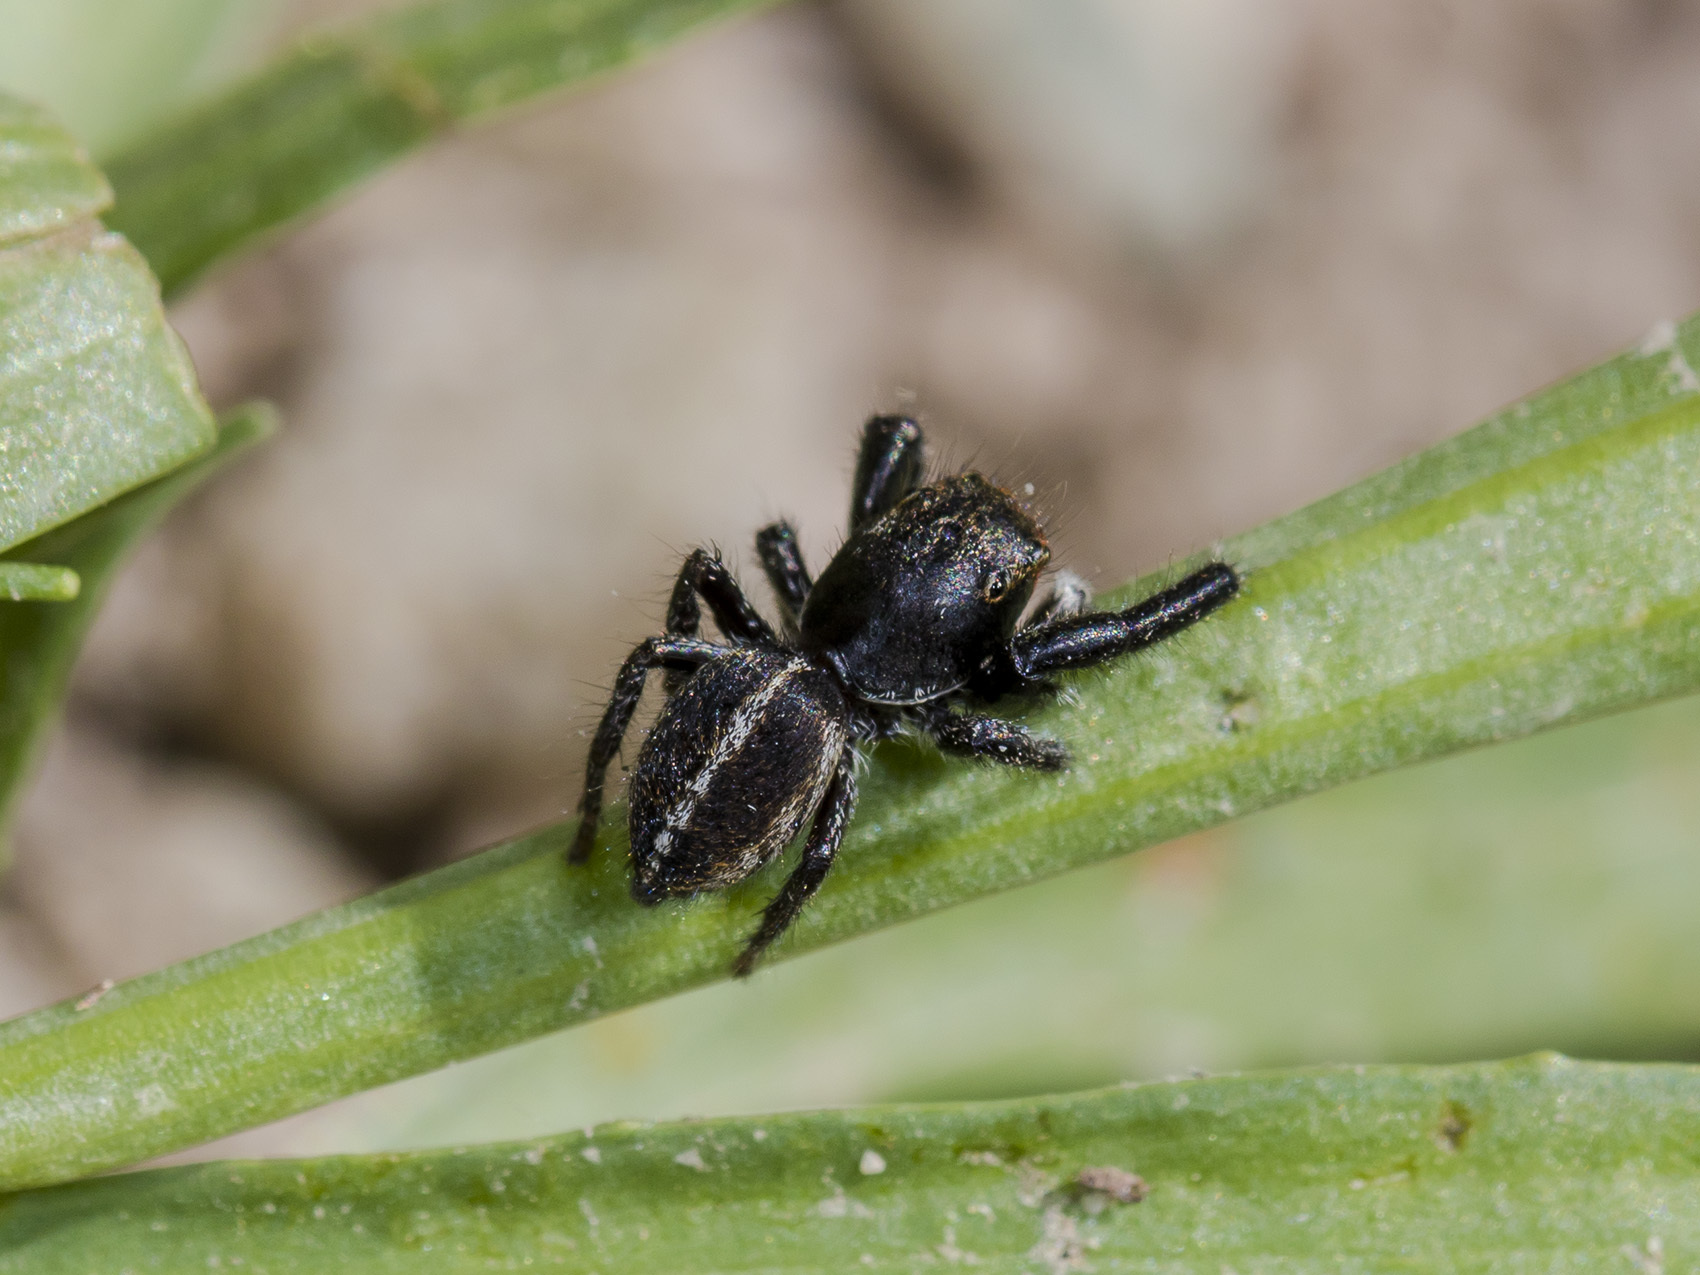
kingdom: Animalia
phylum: Arthropoda
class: Arachnida
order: Araneae
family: Salticidae
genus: Pellenes
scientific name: Pellenes seriatus
